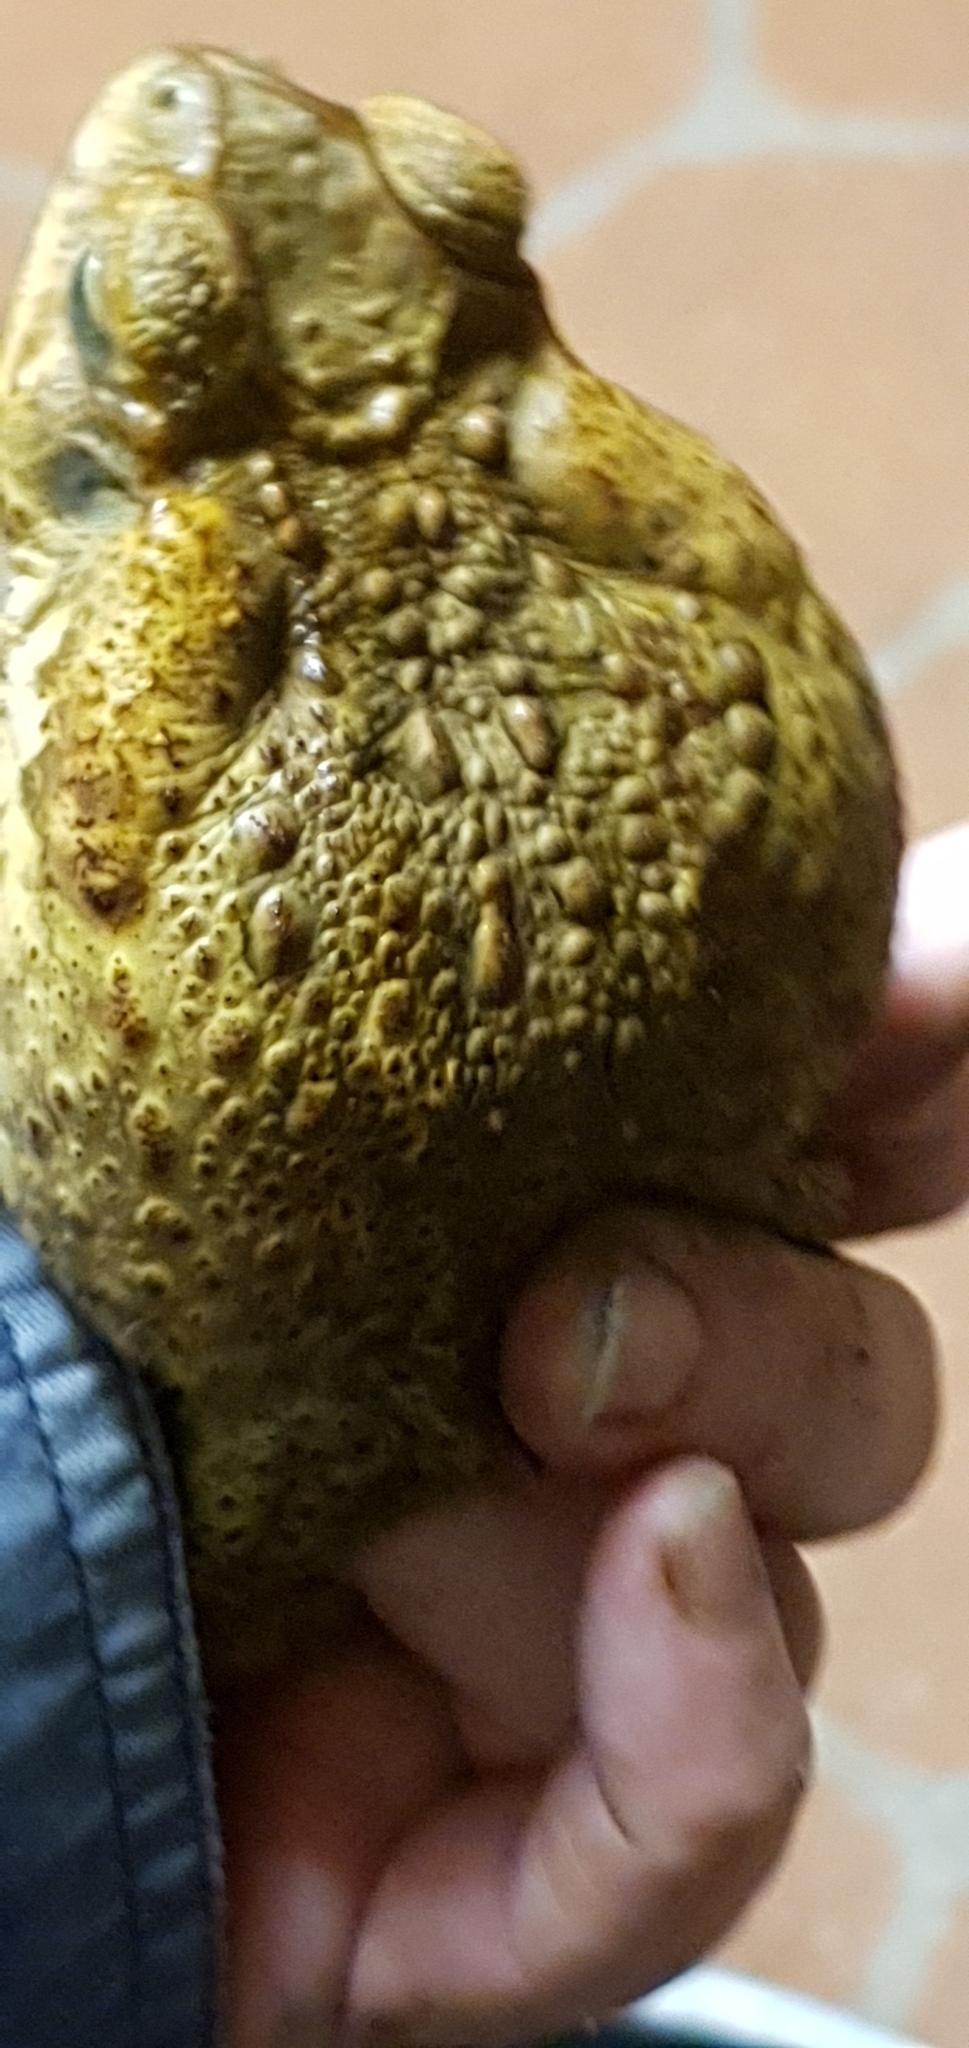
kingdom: Animalia
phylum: Chordata
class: Amphibia
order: Anura
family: Bufonidae
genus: Rhinella
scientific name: Rhinella marina
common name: Cane toad
